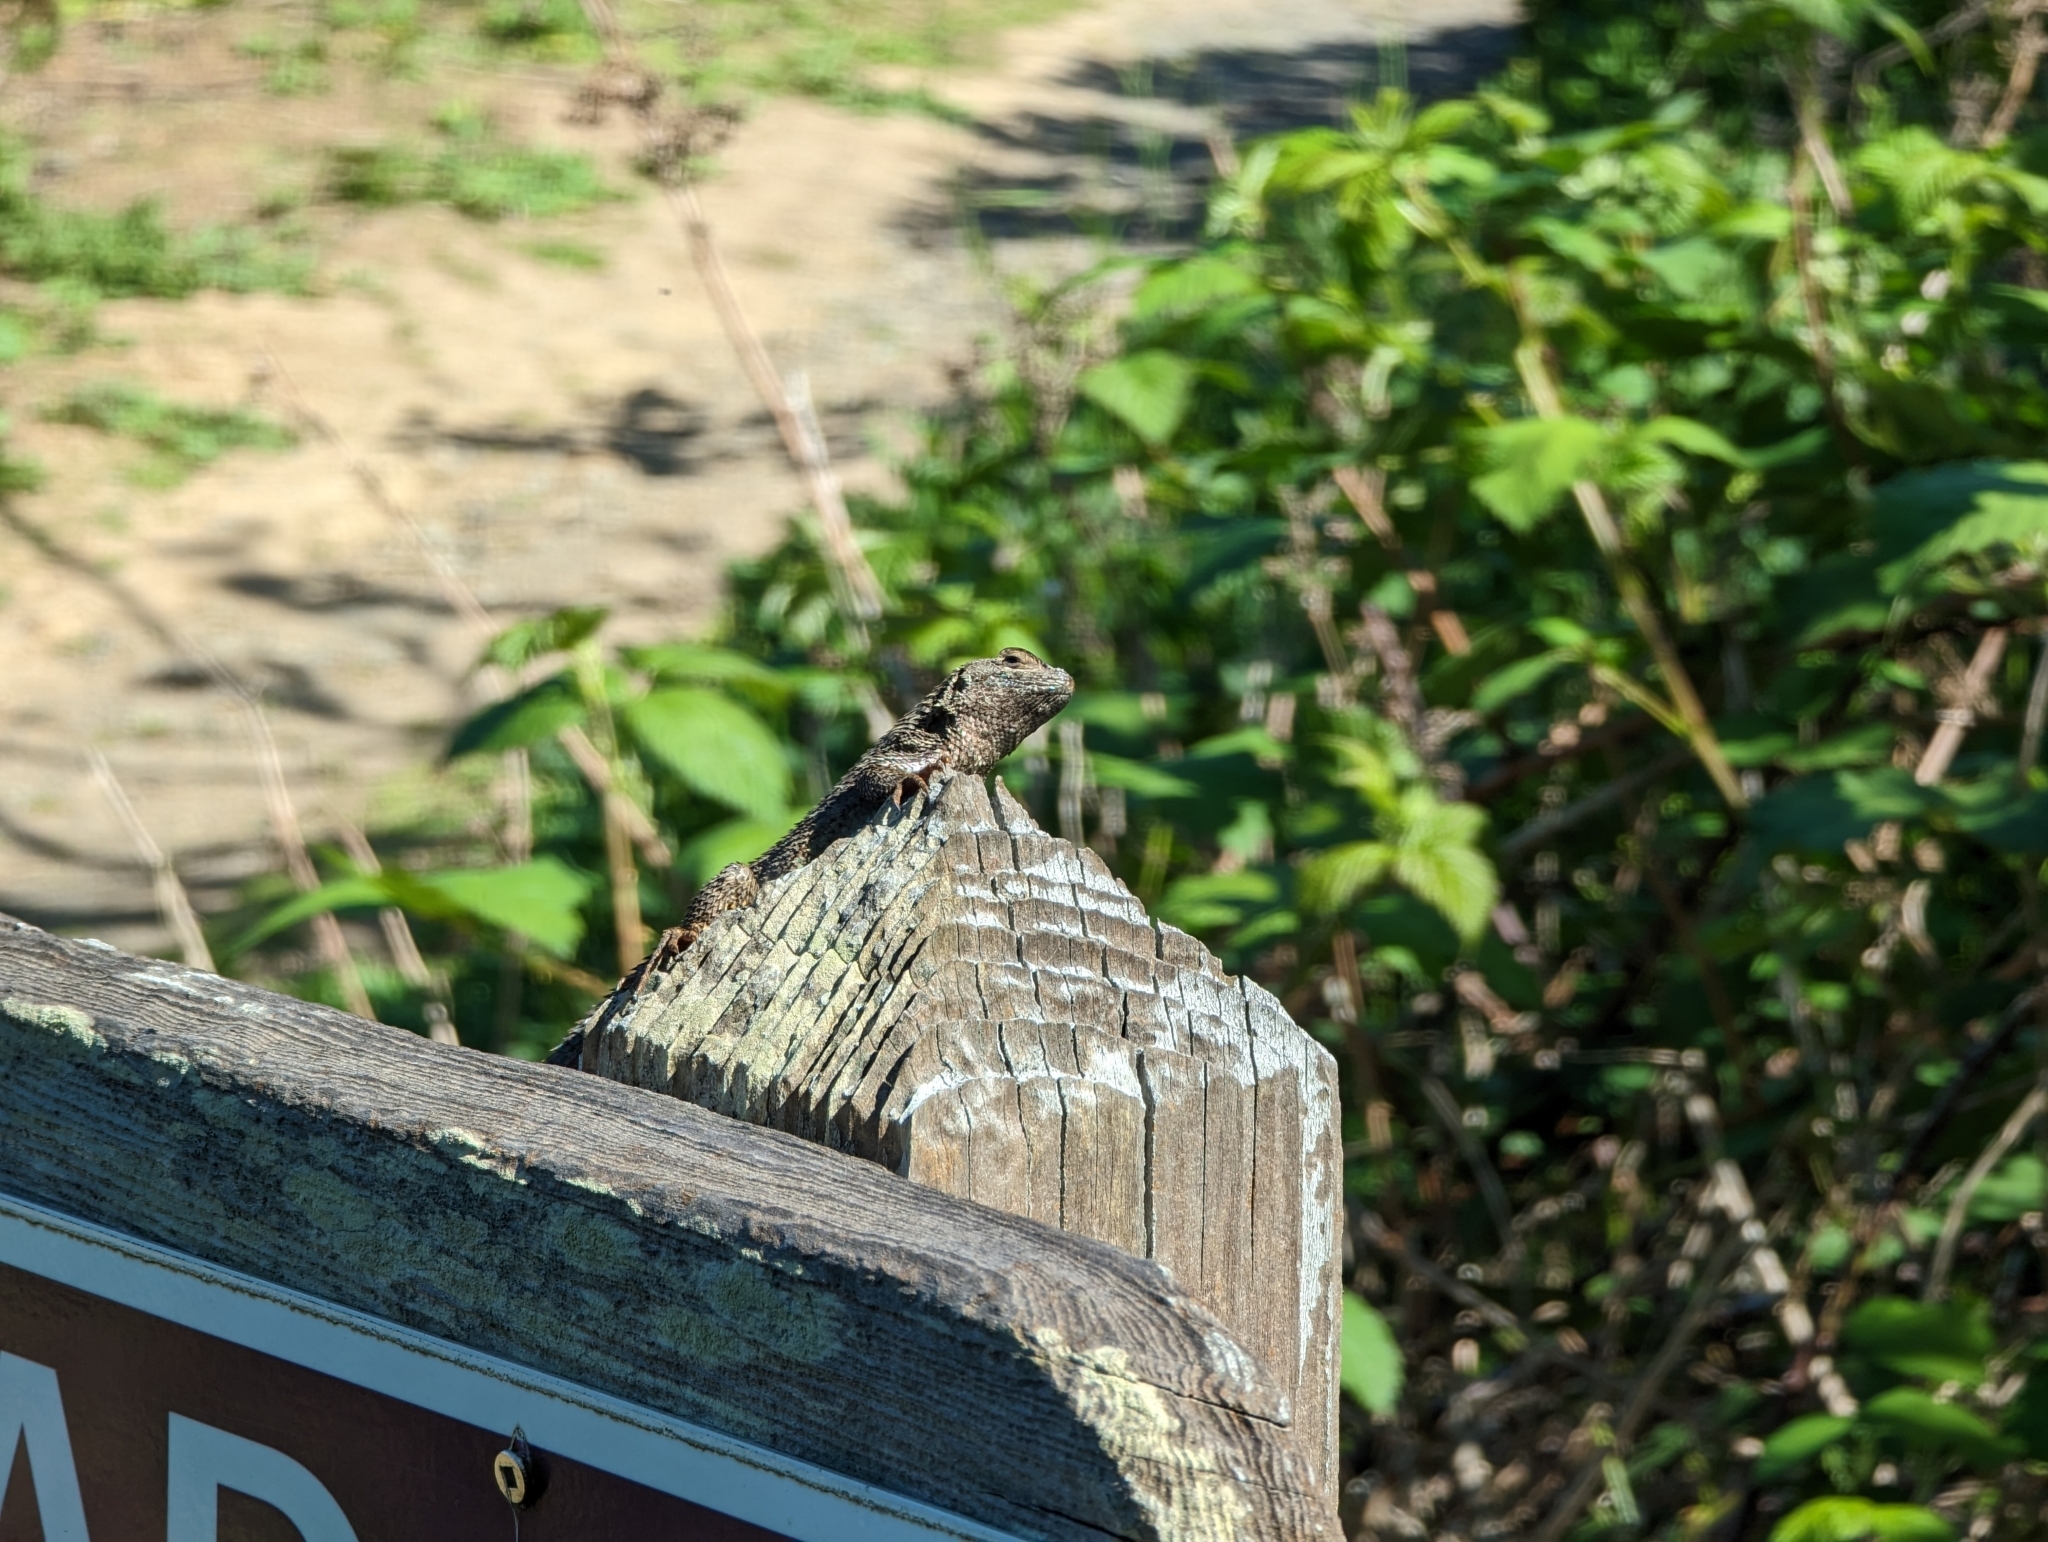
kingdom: Animalia
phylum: Chordata
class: Squamata
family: Phrynosomatidae
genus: Sceloporus
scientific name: Sceloporus occidentalis
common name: Western fence lizard
